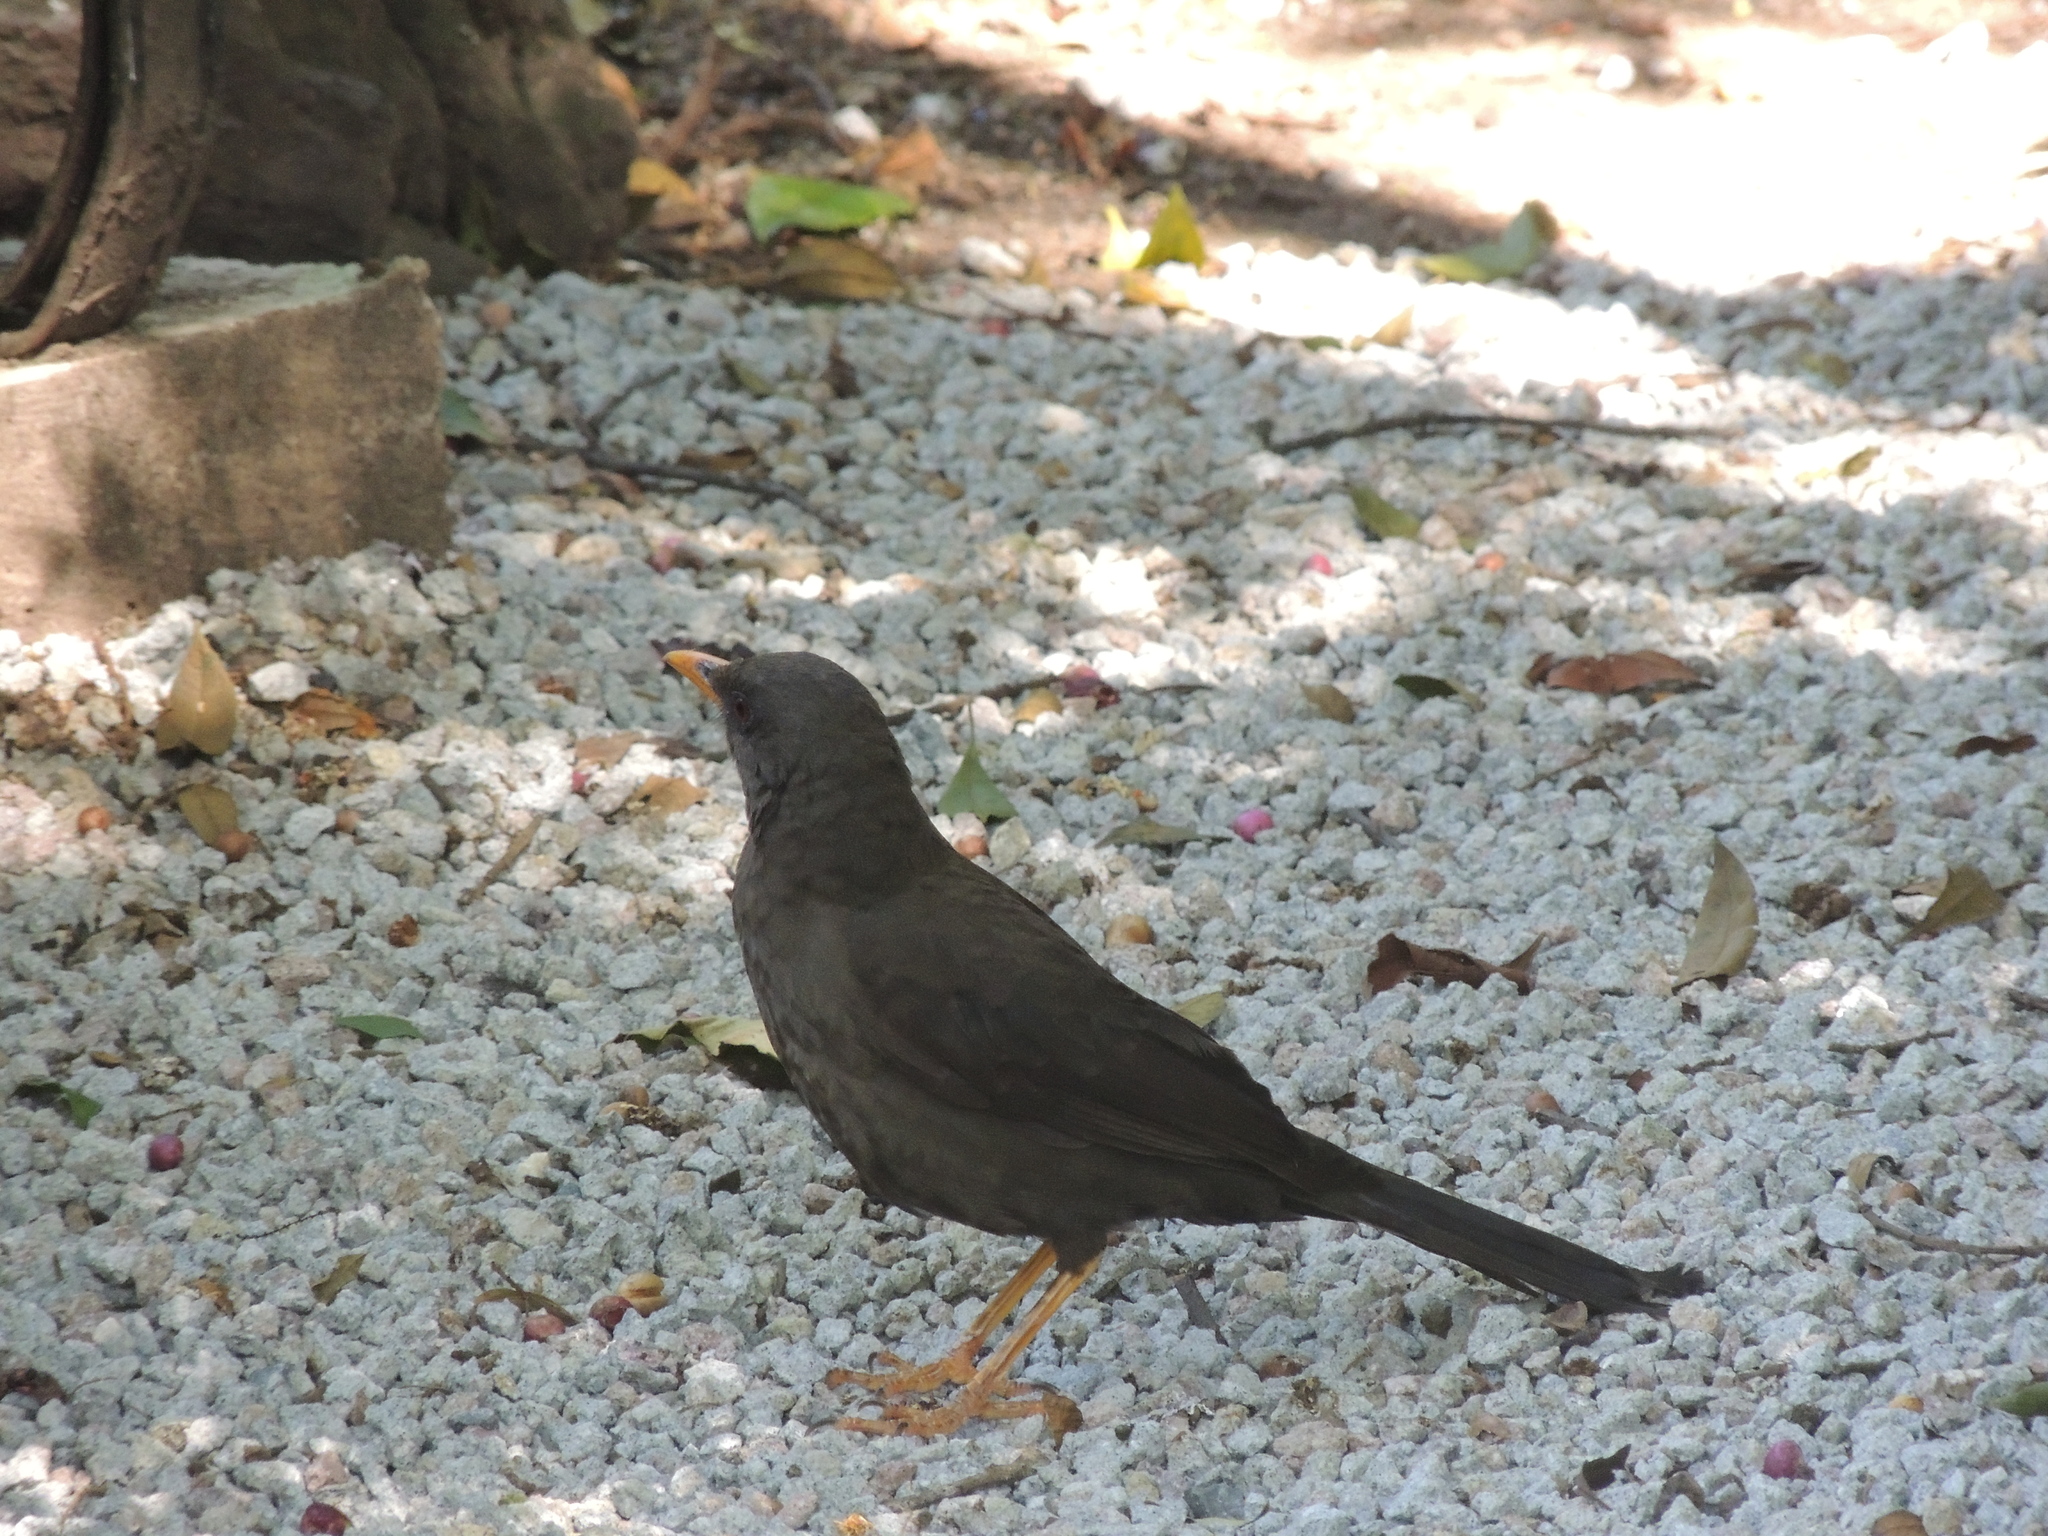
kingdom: Animalia
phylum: Chordata
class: Aves
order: Passeriformes
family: Turdidae
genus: Turdus
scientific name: Turdus fuscater
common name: Great thrush
